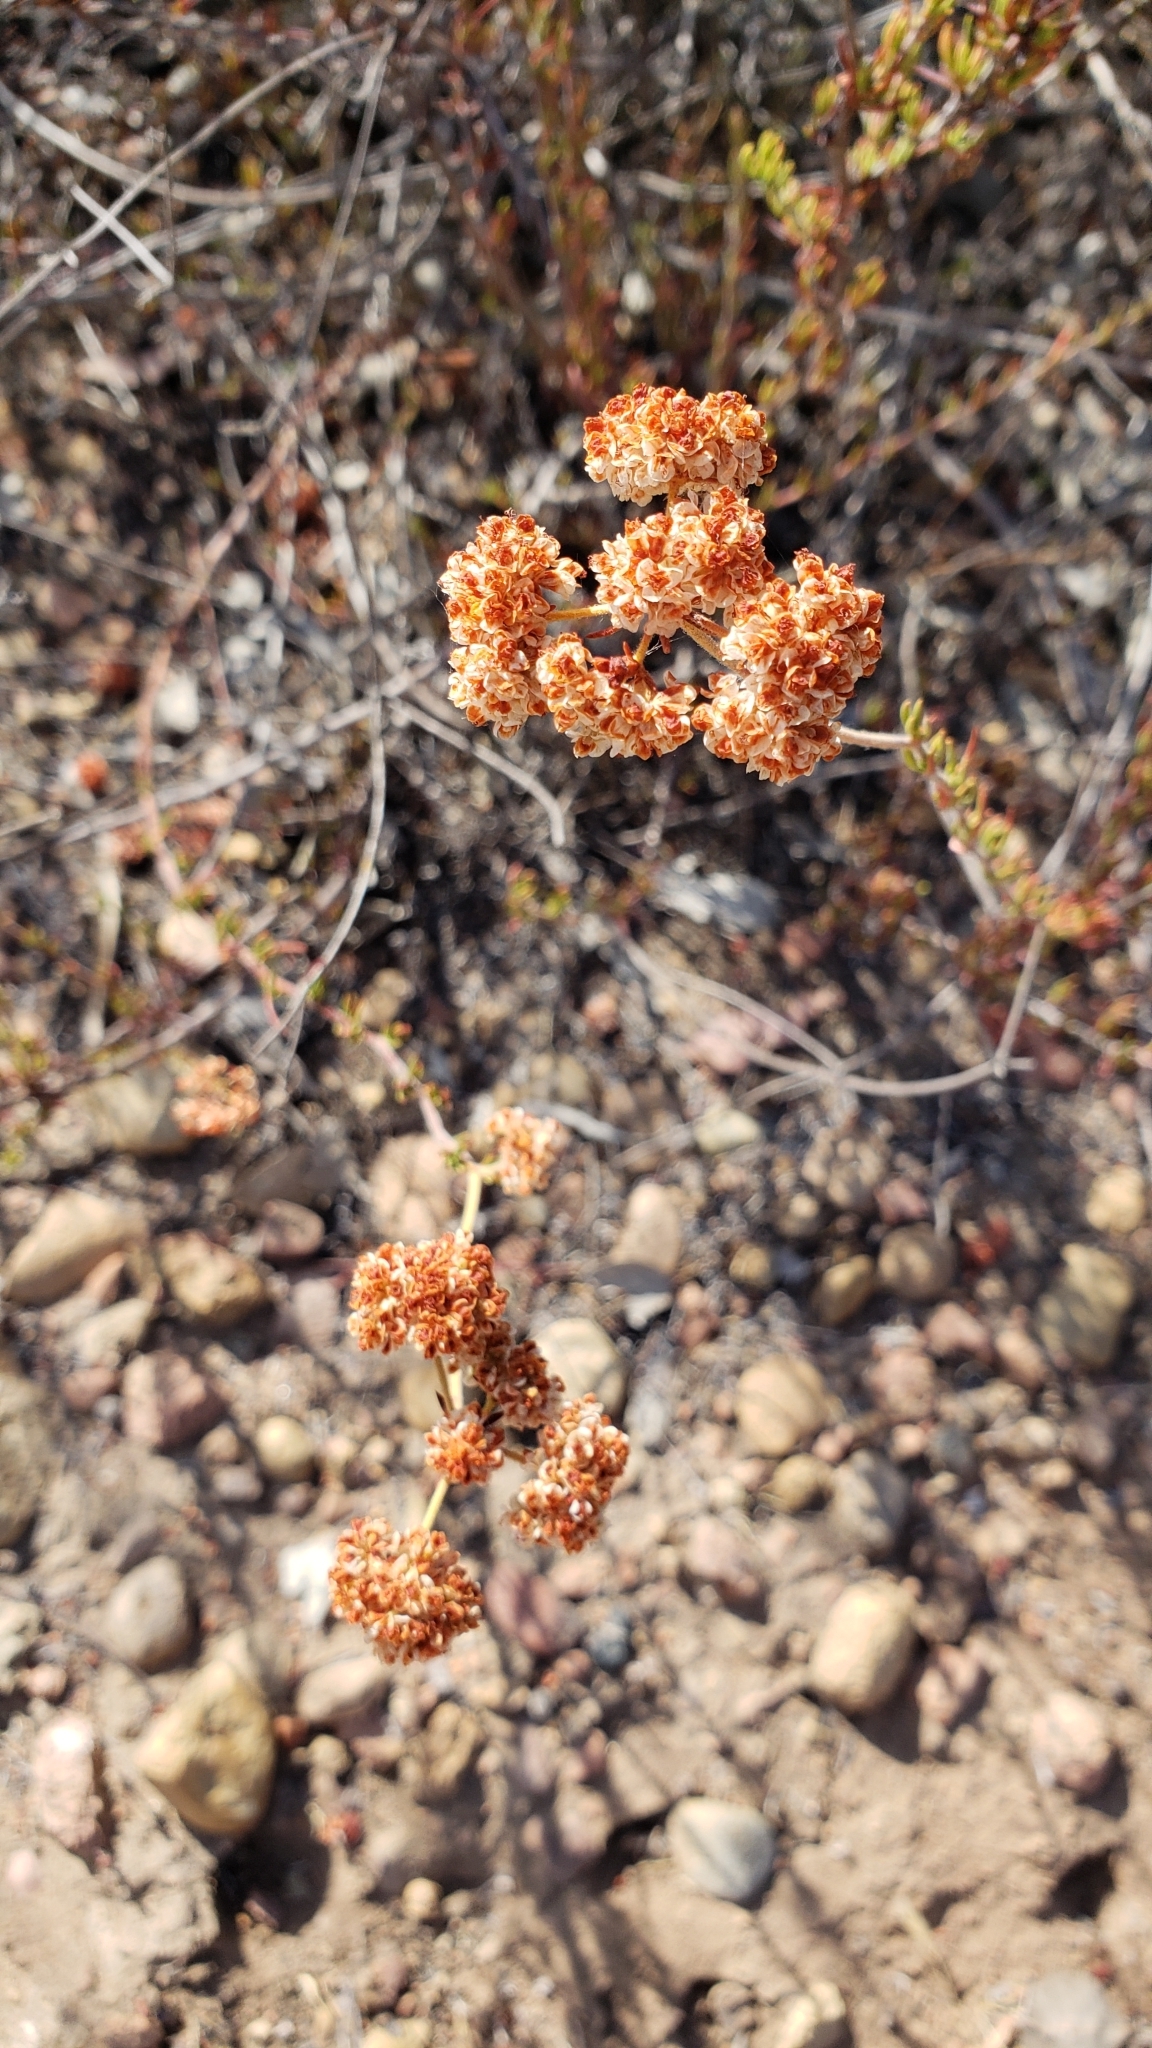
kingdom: Plantae
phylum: Tracheophyta
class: Magnoliopsida
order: Caryophyllales
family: Polygonaceae
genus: Eriogonum
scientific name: Eriogonum fasciculatum
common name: California wild buckwheat
